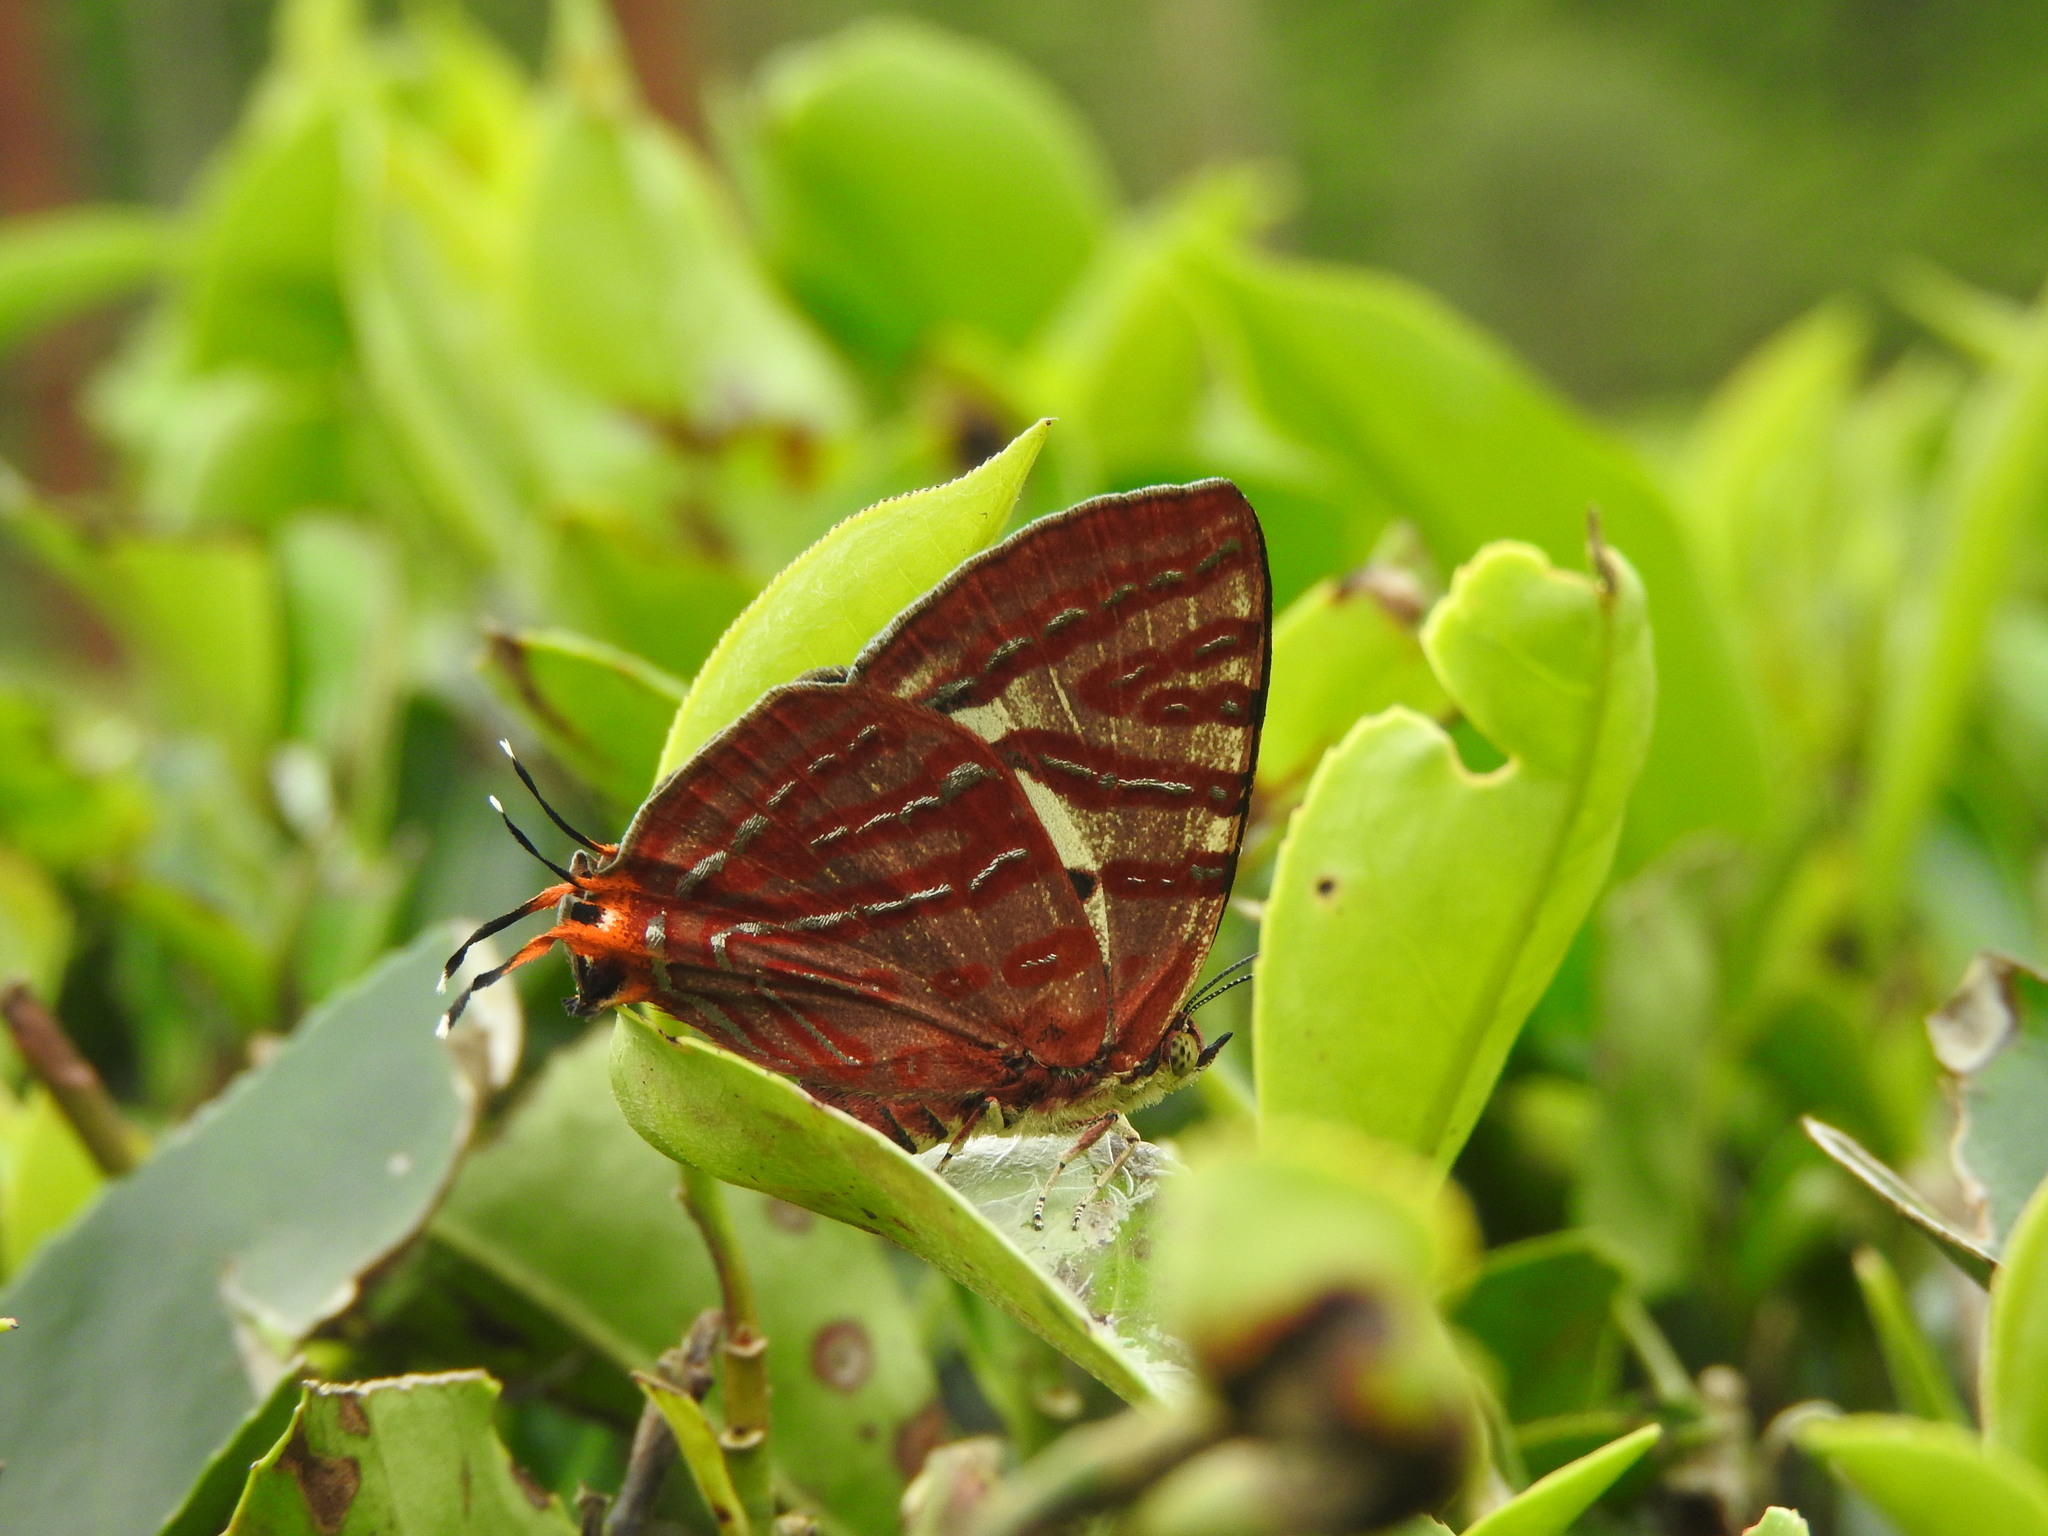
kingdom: Animalia
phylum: Arthropoda
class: Insecta
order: Lepidoptera
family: Lycaenidae
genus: Cigaritis
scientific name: Cigaritis lohita
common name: Long-banded silverline
